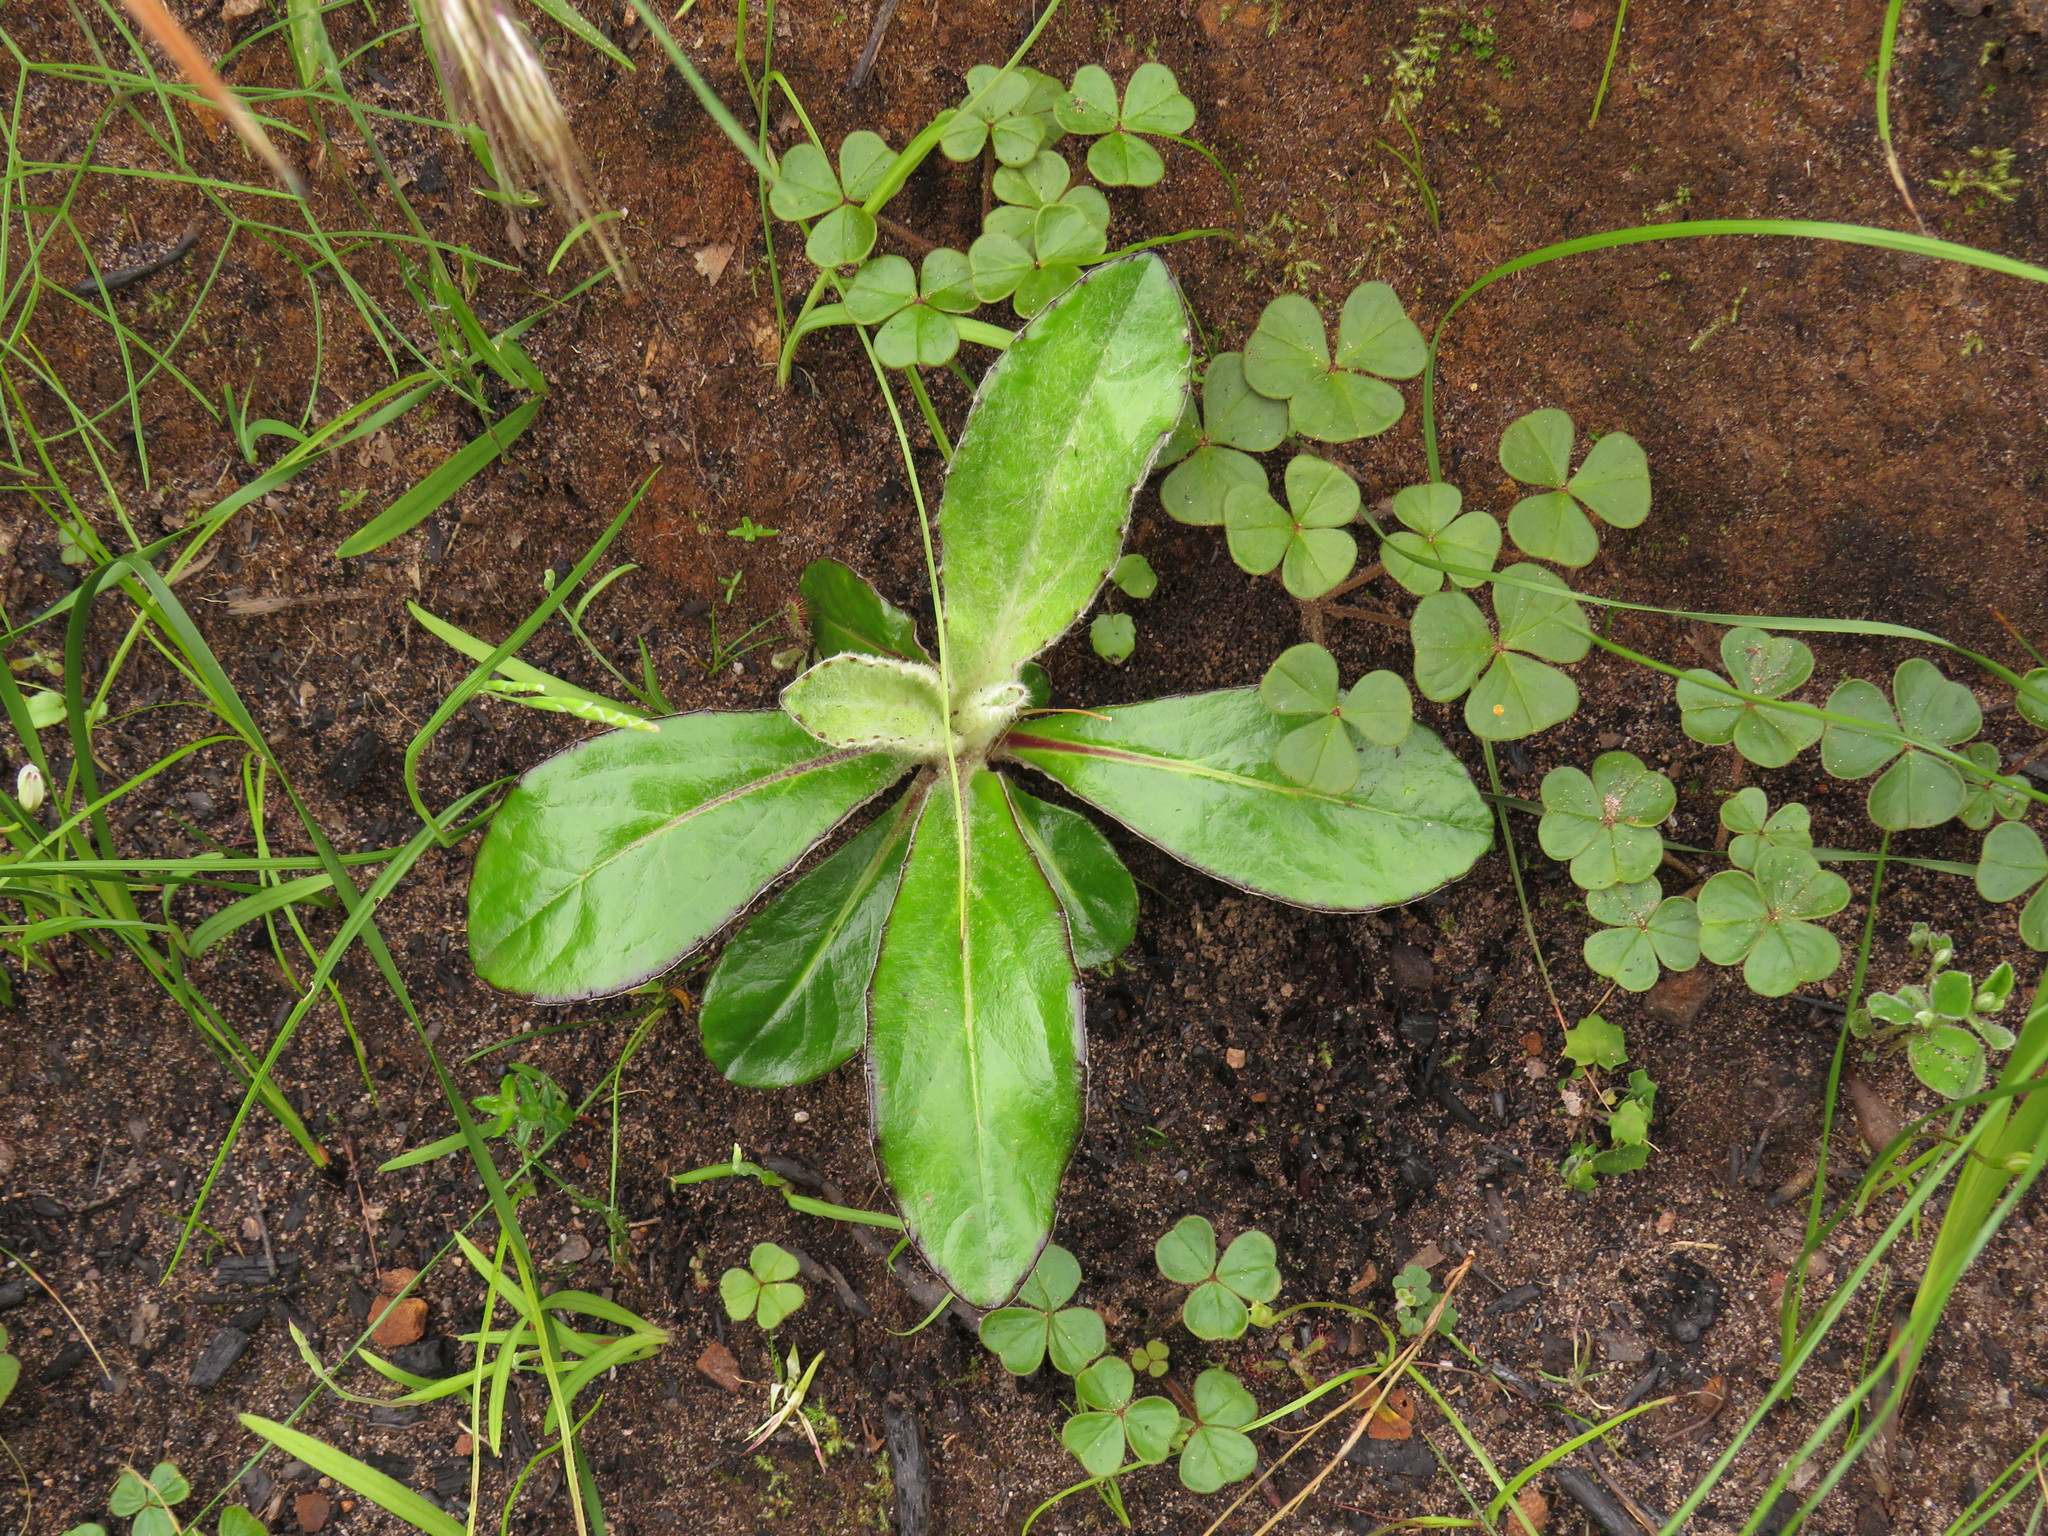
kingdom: Plantae
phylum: Tracheophyta
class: Magnoliopsida
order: Asterales
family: Asteraceae
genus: Mairia
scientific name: Mairia robusta
